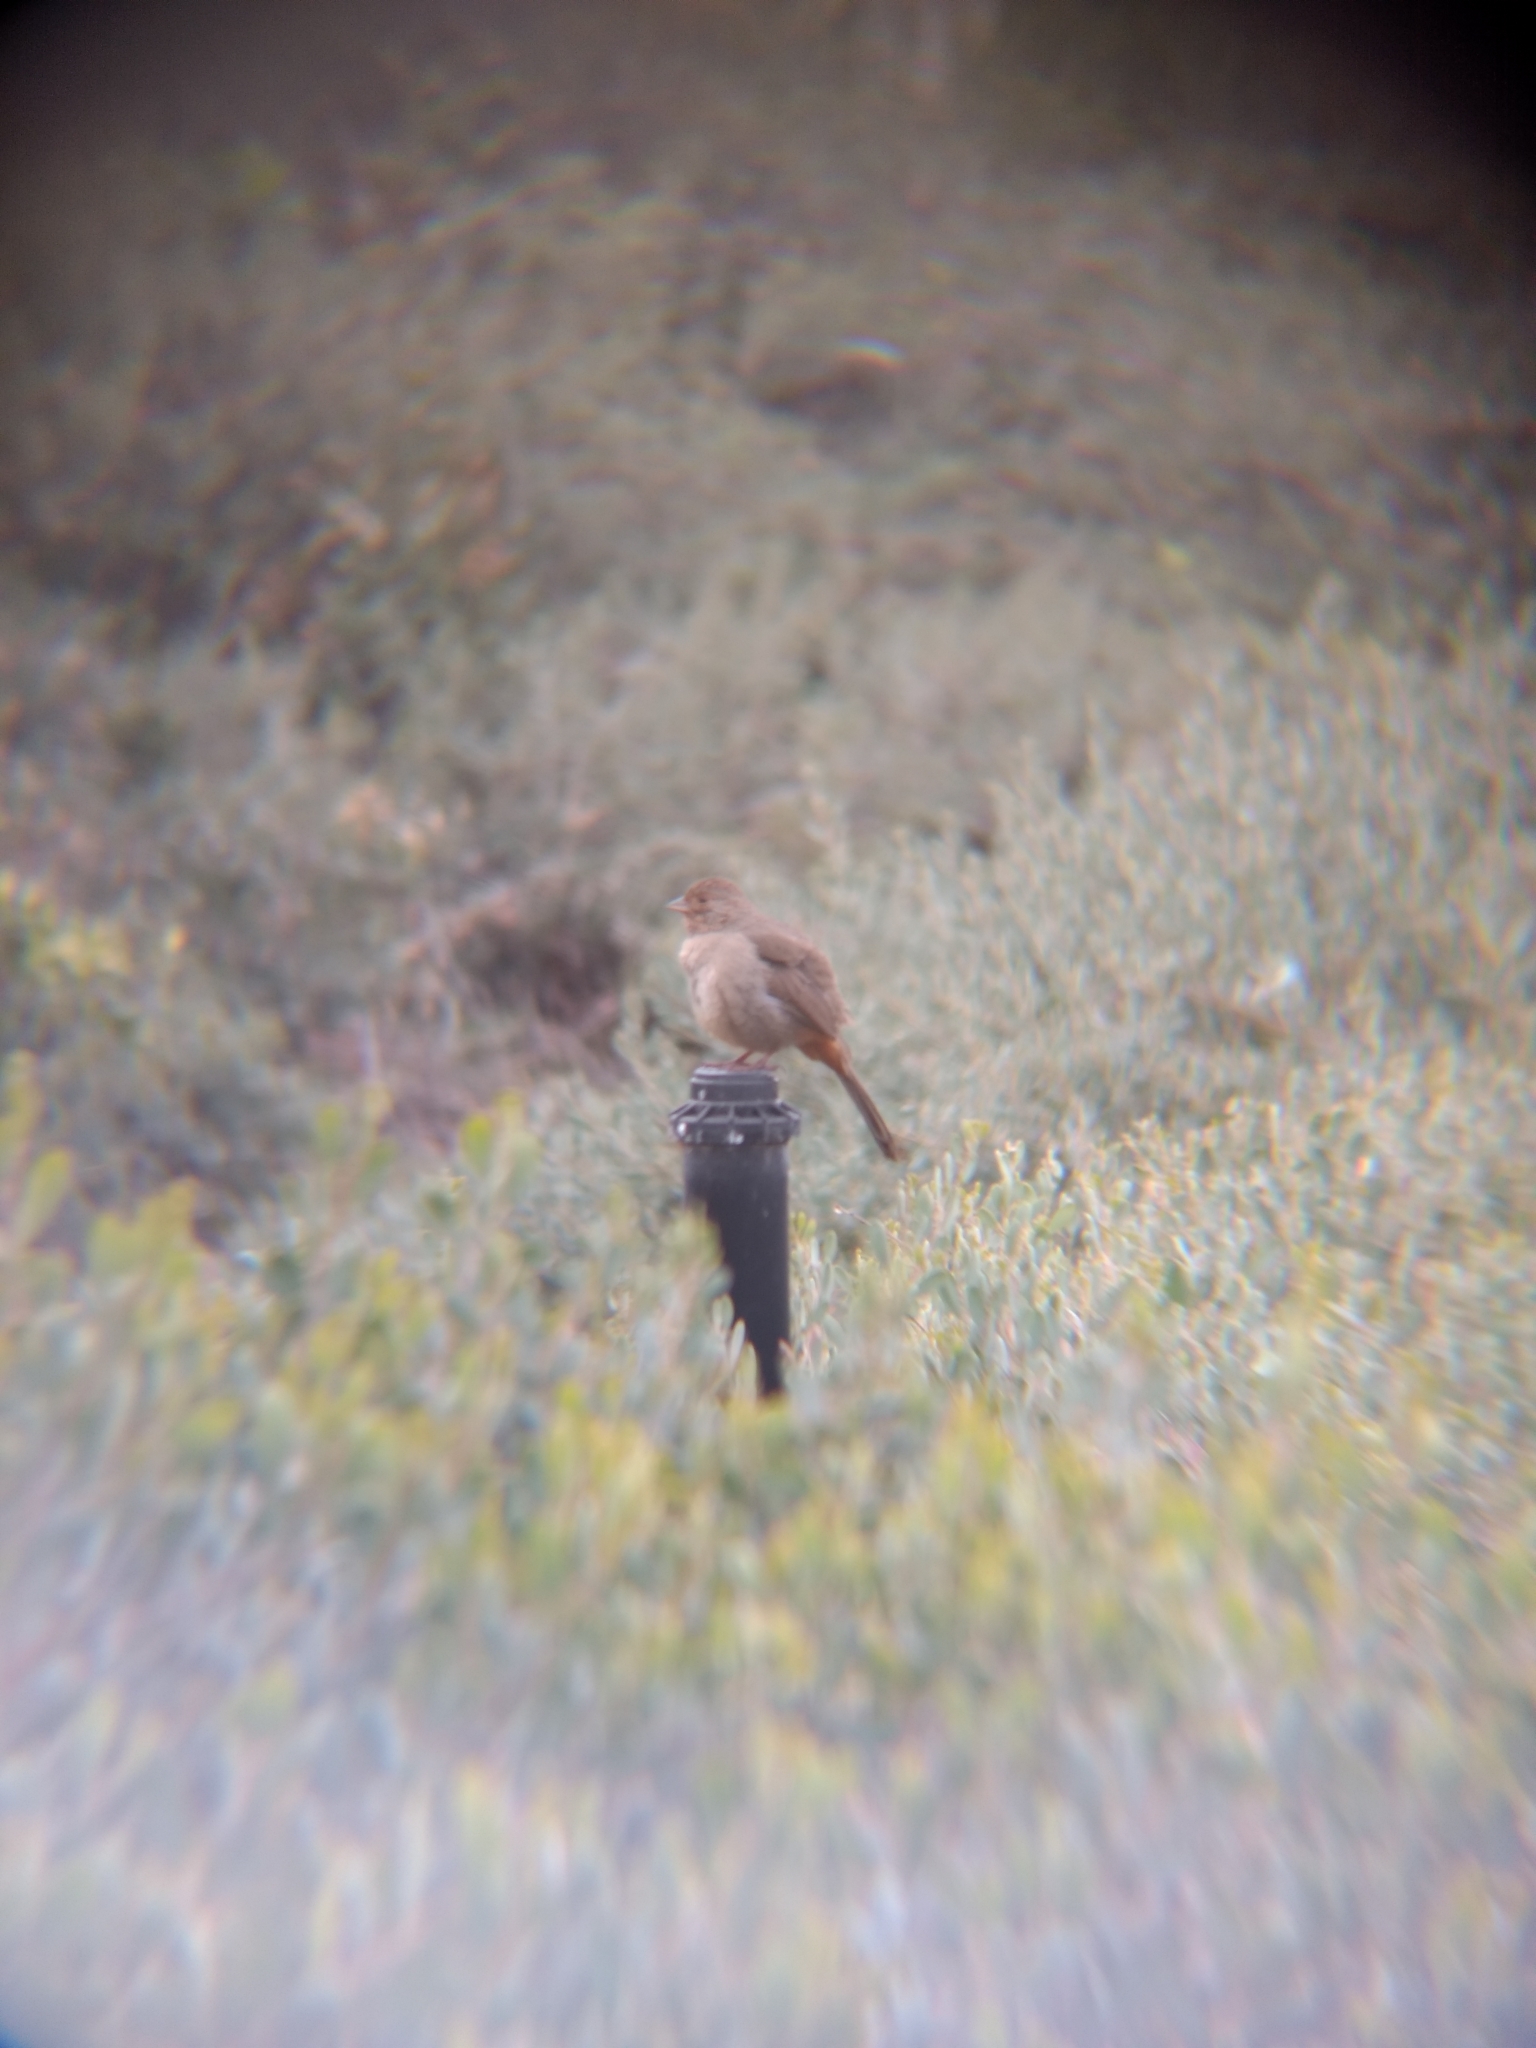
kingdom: Animalia
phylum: Chordata
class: Aves
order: Passeriformes
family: Passerellidae
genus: Melozone
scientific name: Melozone crissalis
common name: California towhee
